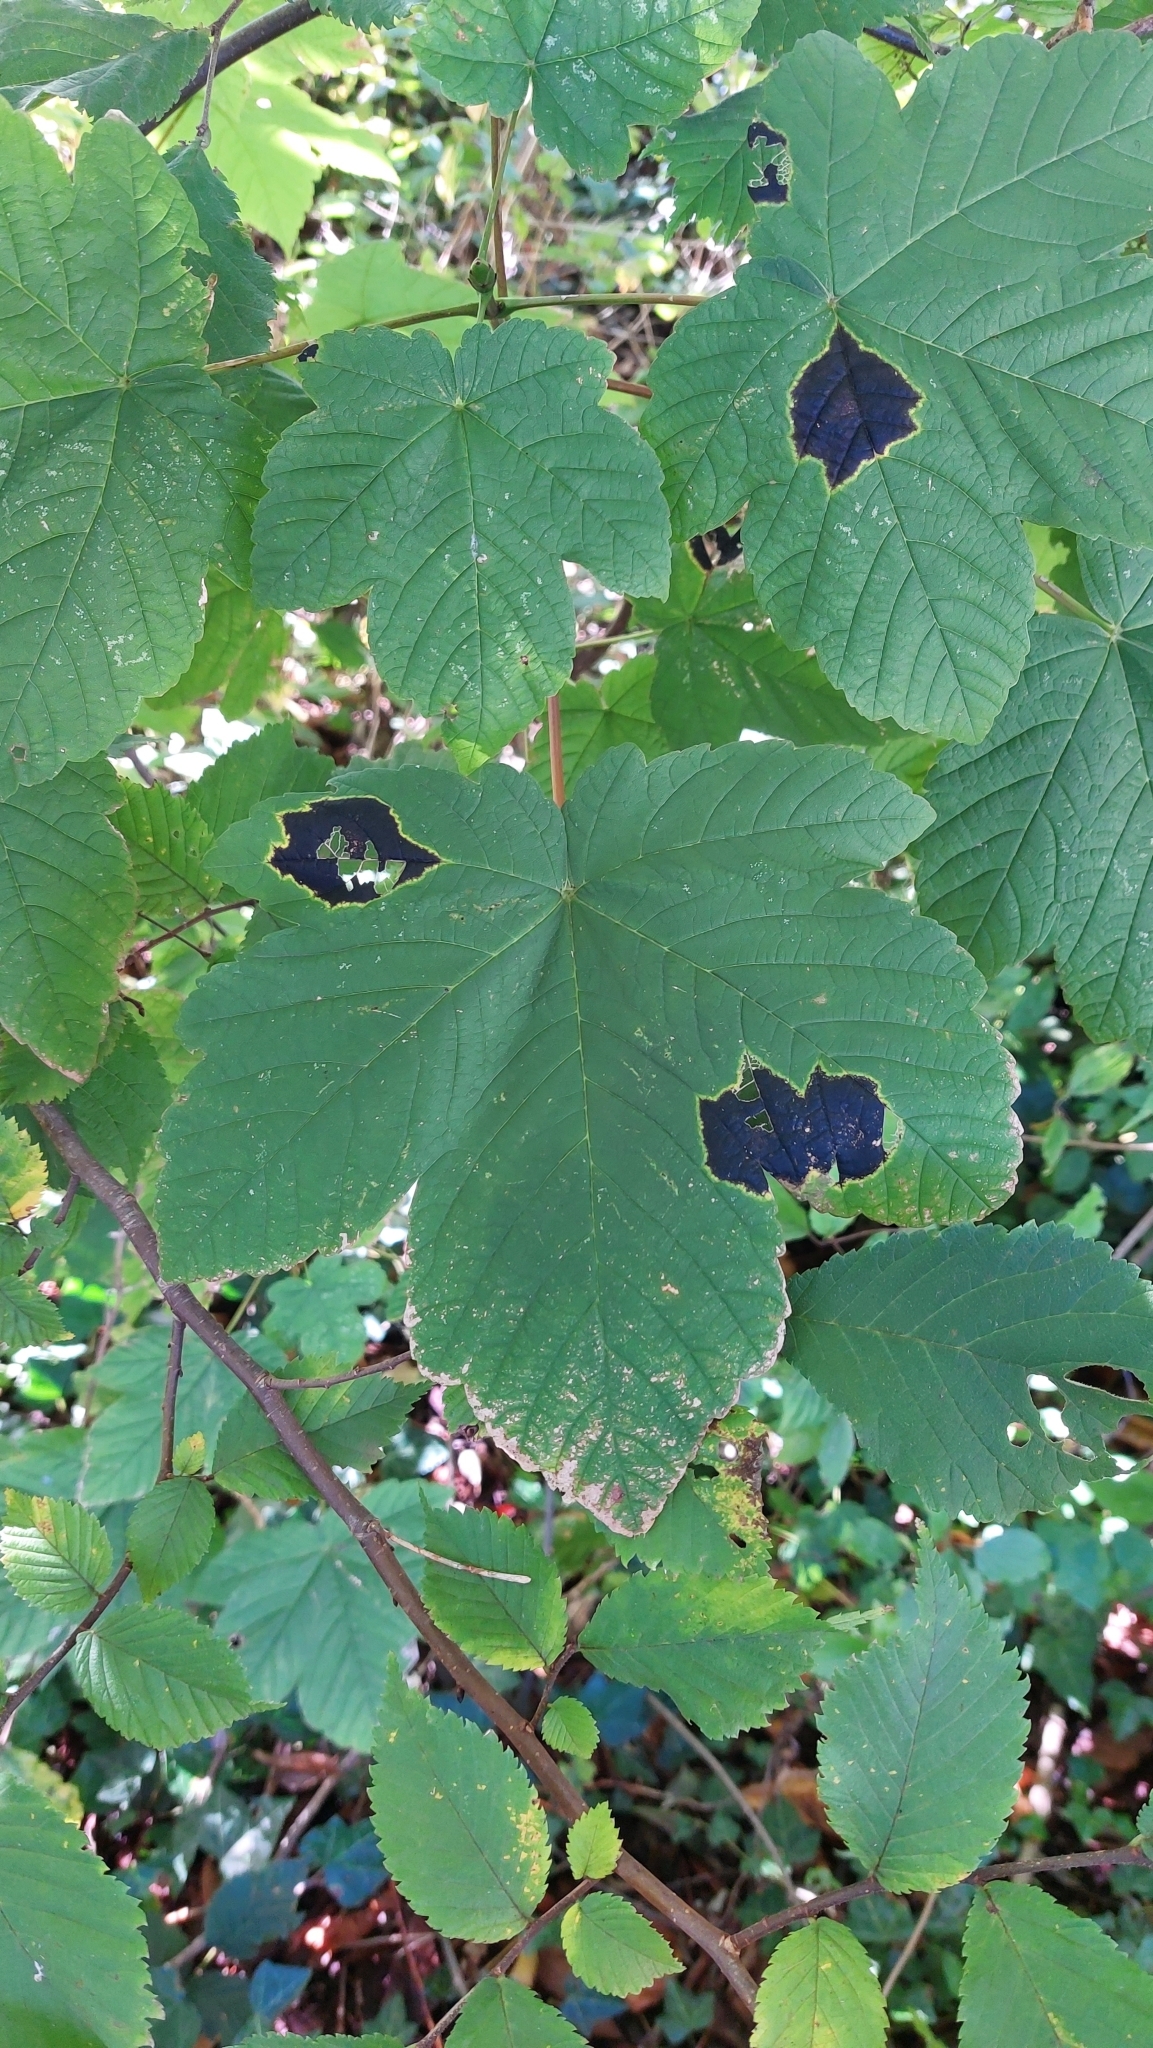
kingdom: Fungi
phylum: Ascomycota
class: Leotiomycetes
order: Rhytismatales
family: Rhytismataceae
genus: Rhytisma
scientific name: Rhytisma acerinum
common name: European tar spot
